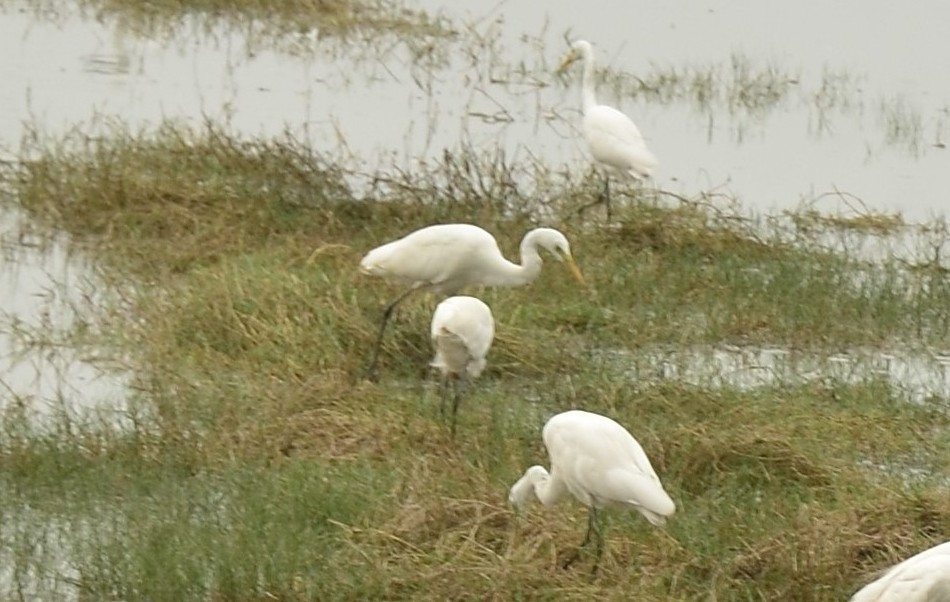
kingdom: Animalia
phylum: Chordata
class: Aves
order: Pelecaniformes
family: Ardeidae
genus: Egretta
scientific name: Egretta intermedia
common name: Intermediate egret
